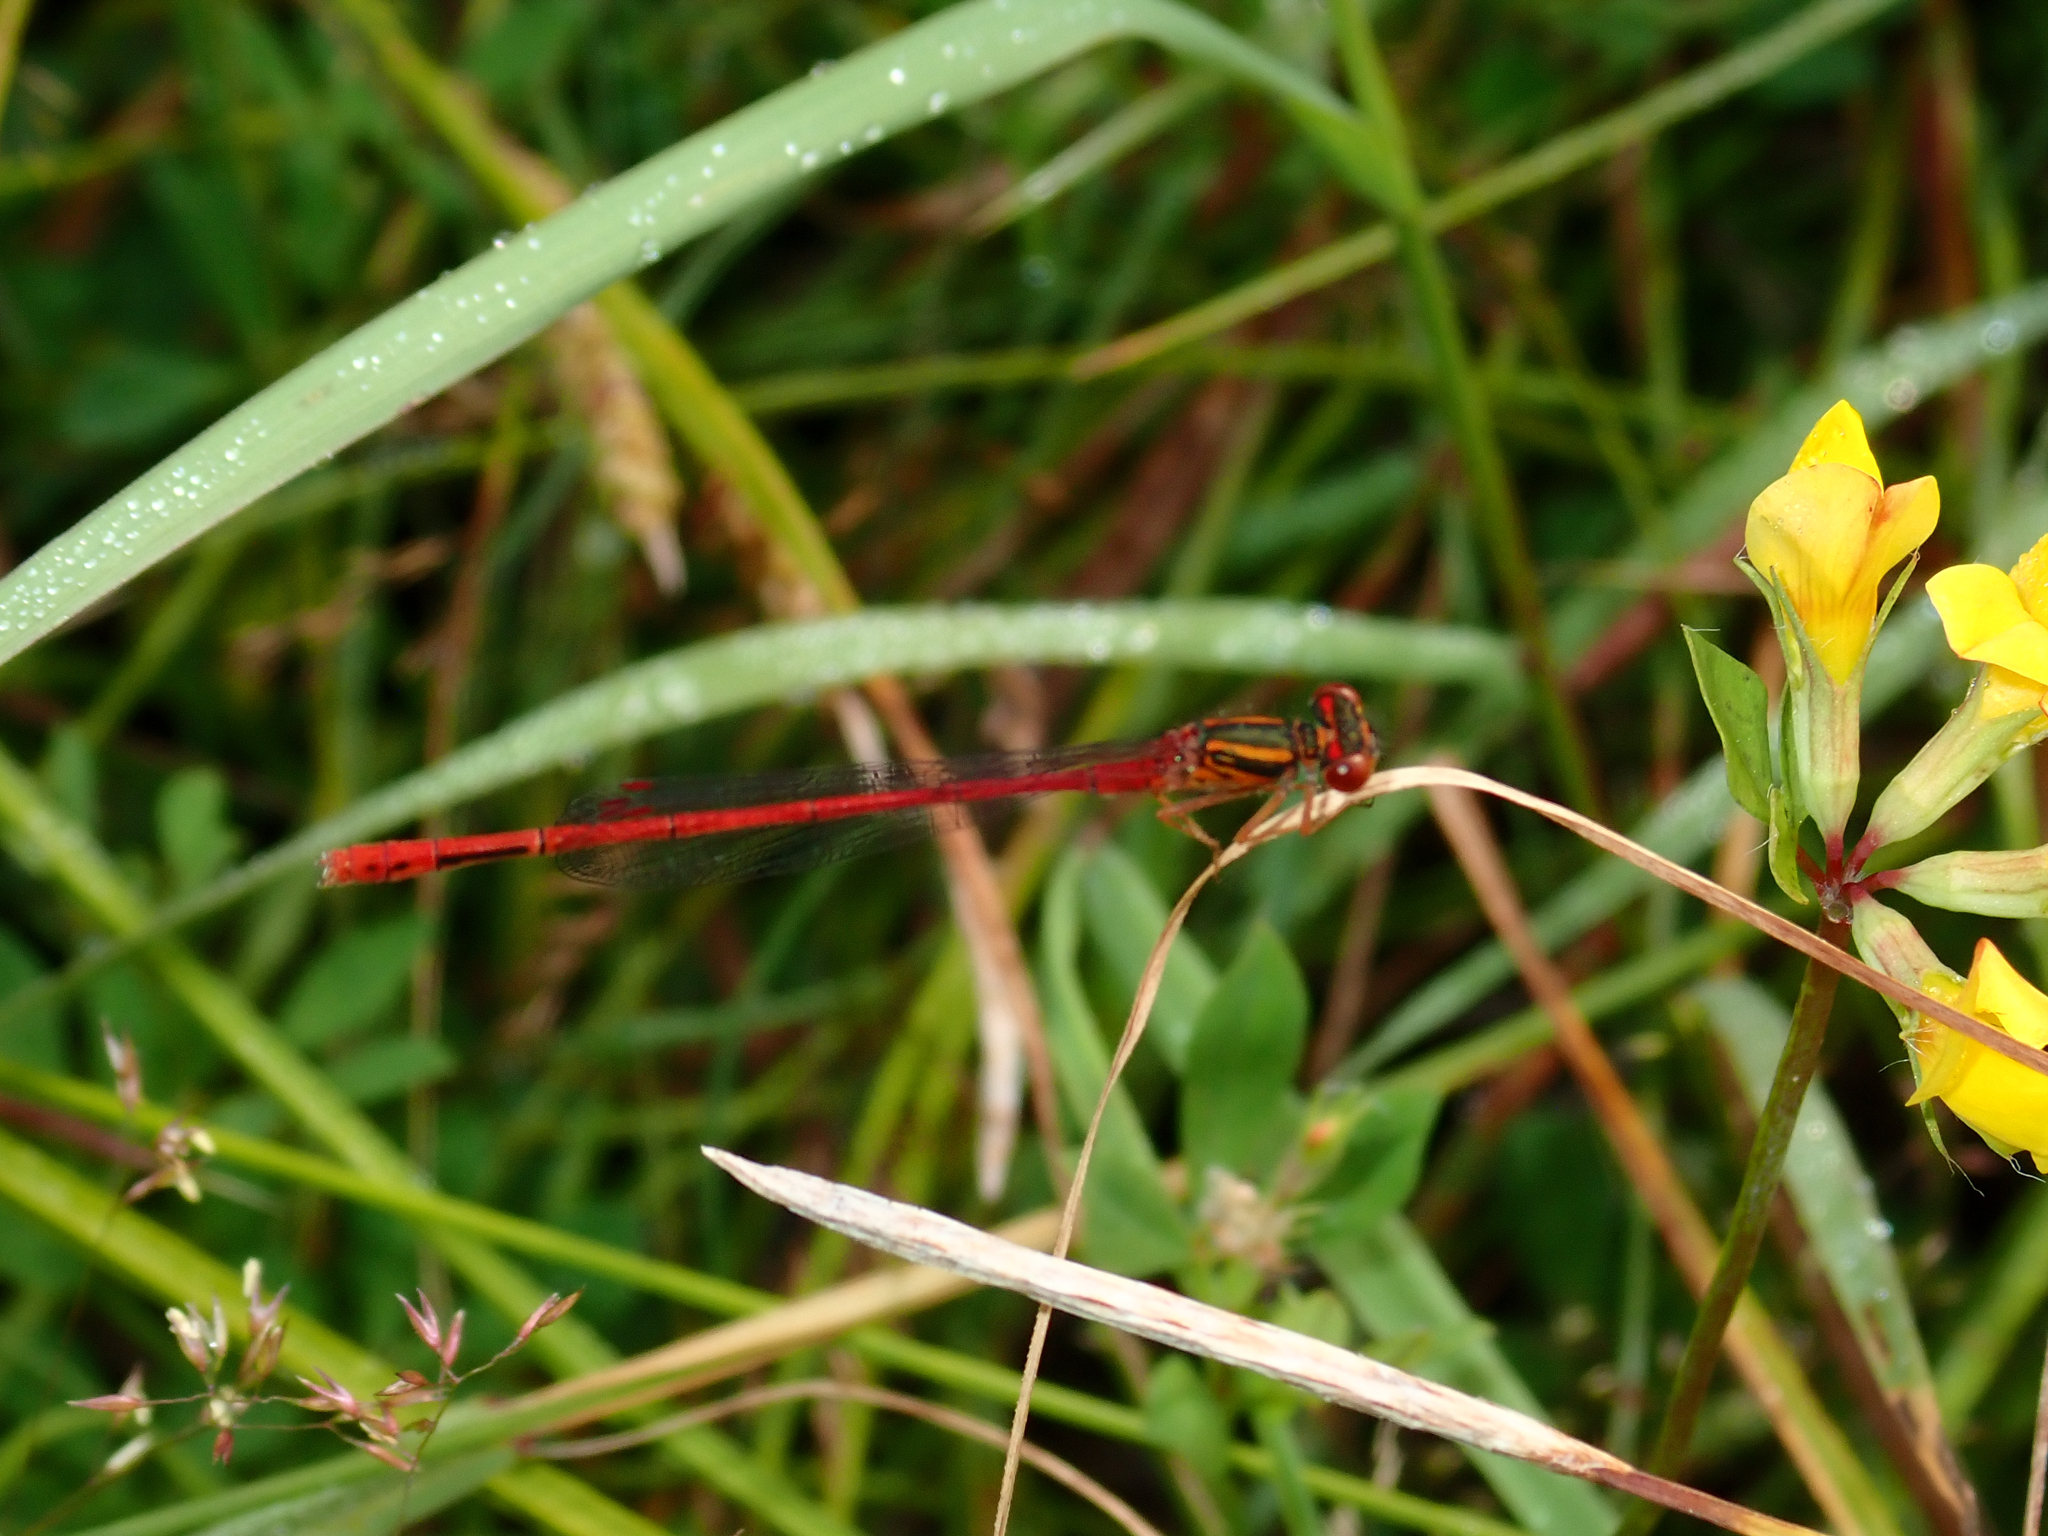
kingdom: Animalia
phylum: Arthropoda
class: Insecta
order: Odonata
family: Coenagrionidae
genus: Xanthocnemis
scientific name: Xanthocnemis zealandica
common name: Common redcoat damselfly
